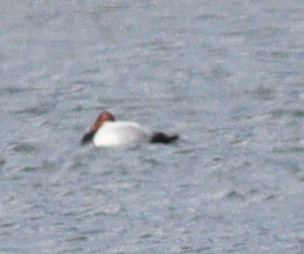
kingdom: Animalia
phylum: Chordata
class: Aves
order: Anseriformes
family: Anatidae
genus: Aythya
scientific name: Aythya ferina
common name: Common pochard
